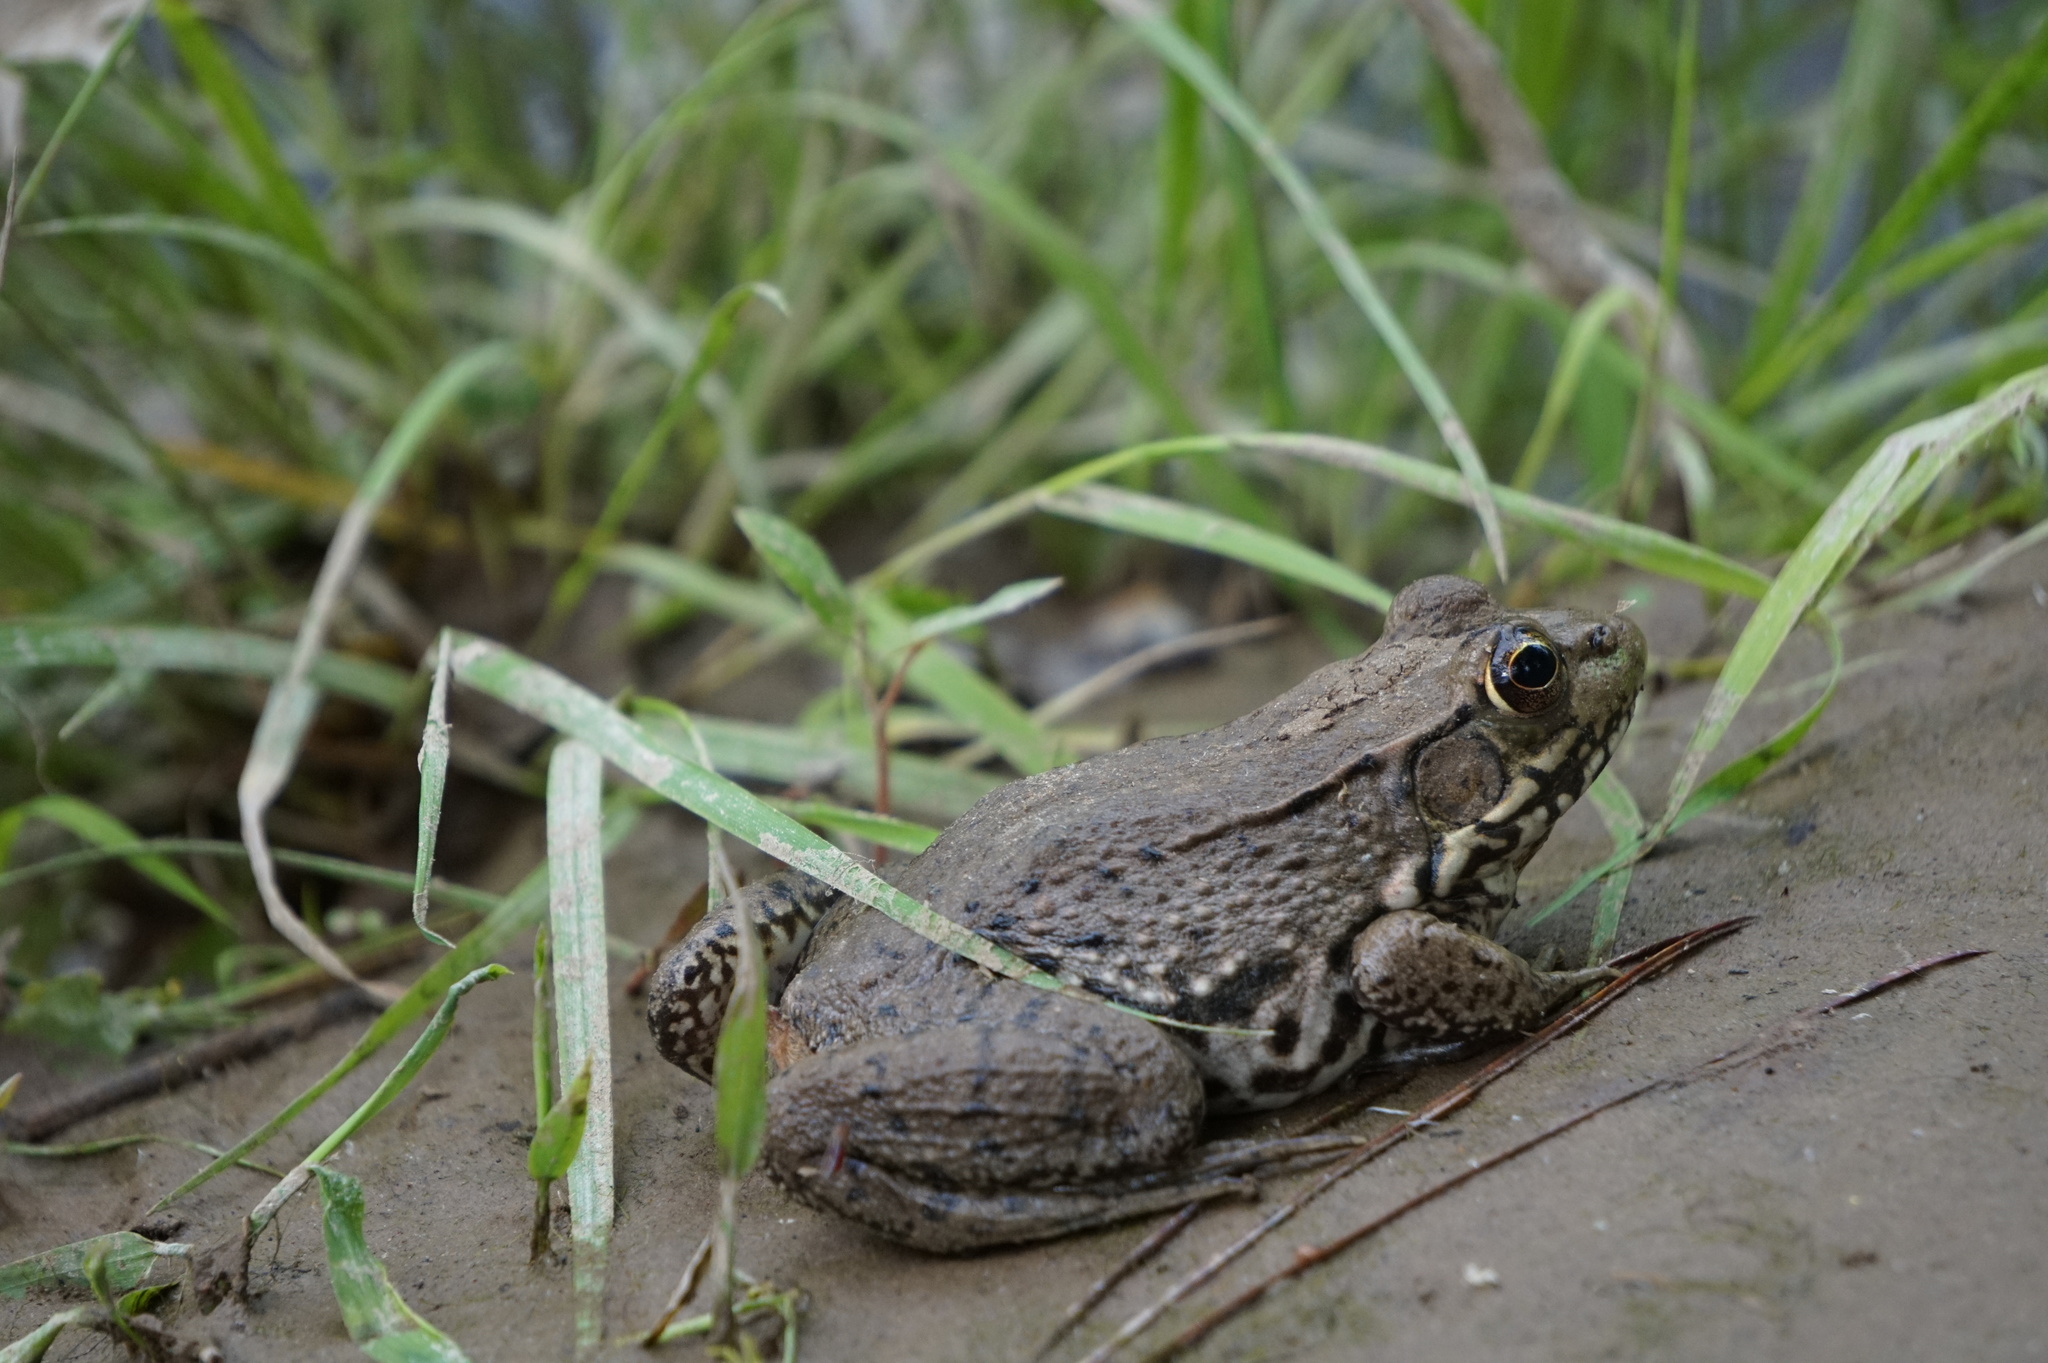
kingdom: Animalia
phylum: Chordata
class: Amphibia
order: Anura
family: Ranidae
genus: Lithobates
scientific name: Lithobates clamitans
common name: Green frog
